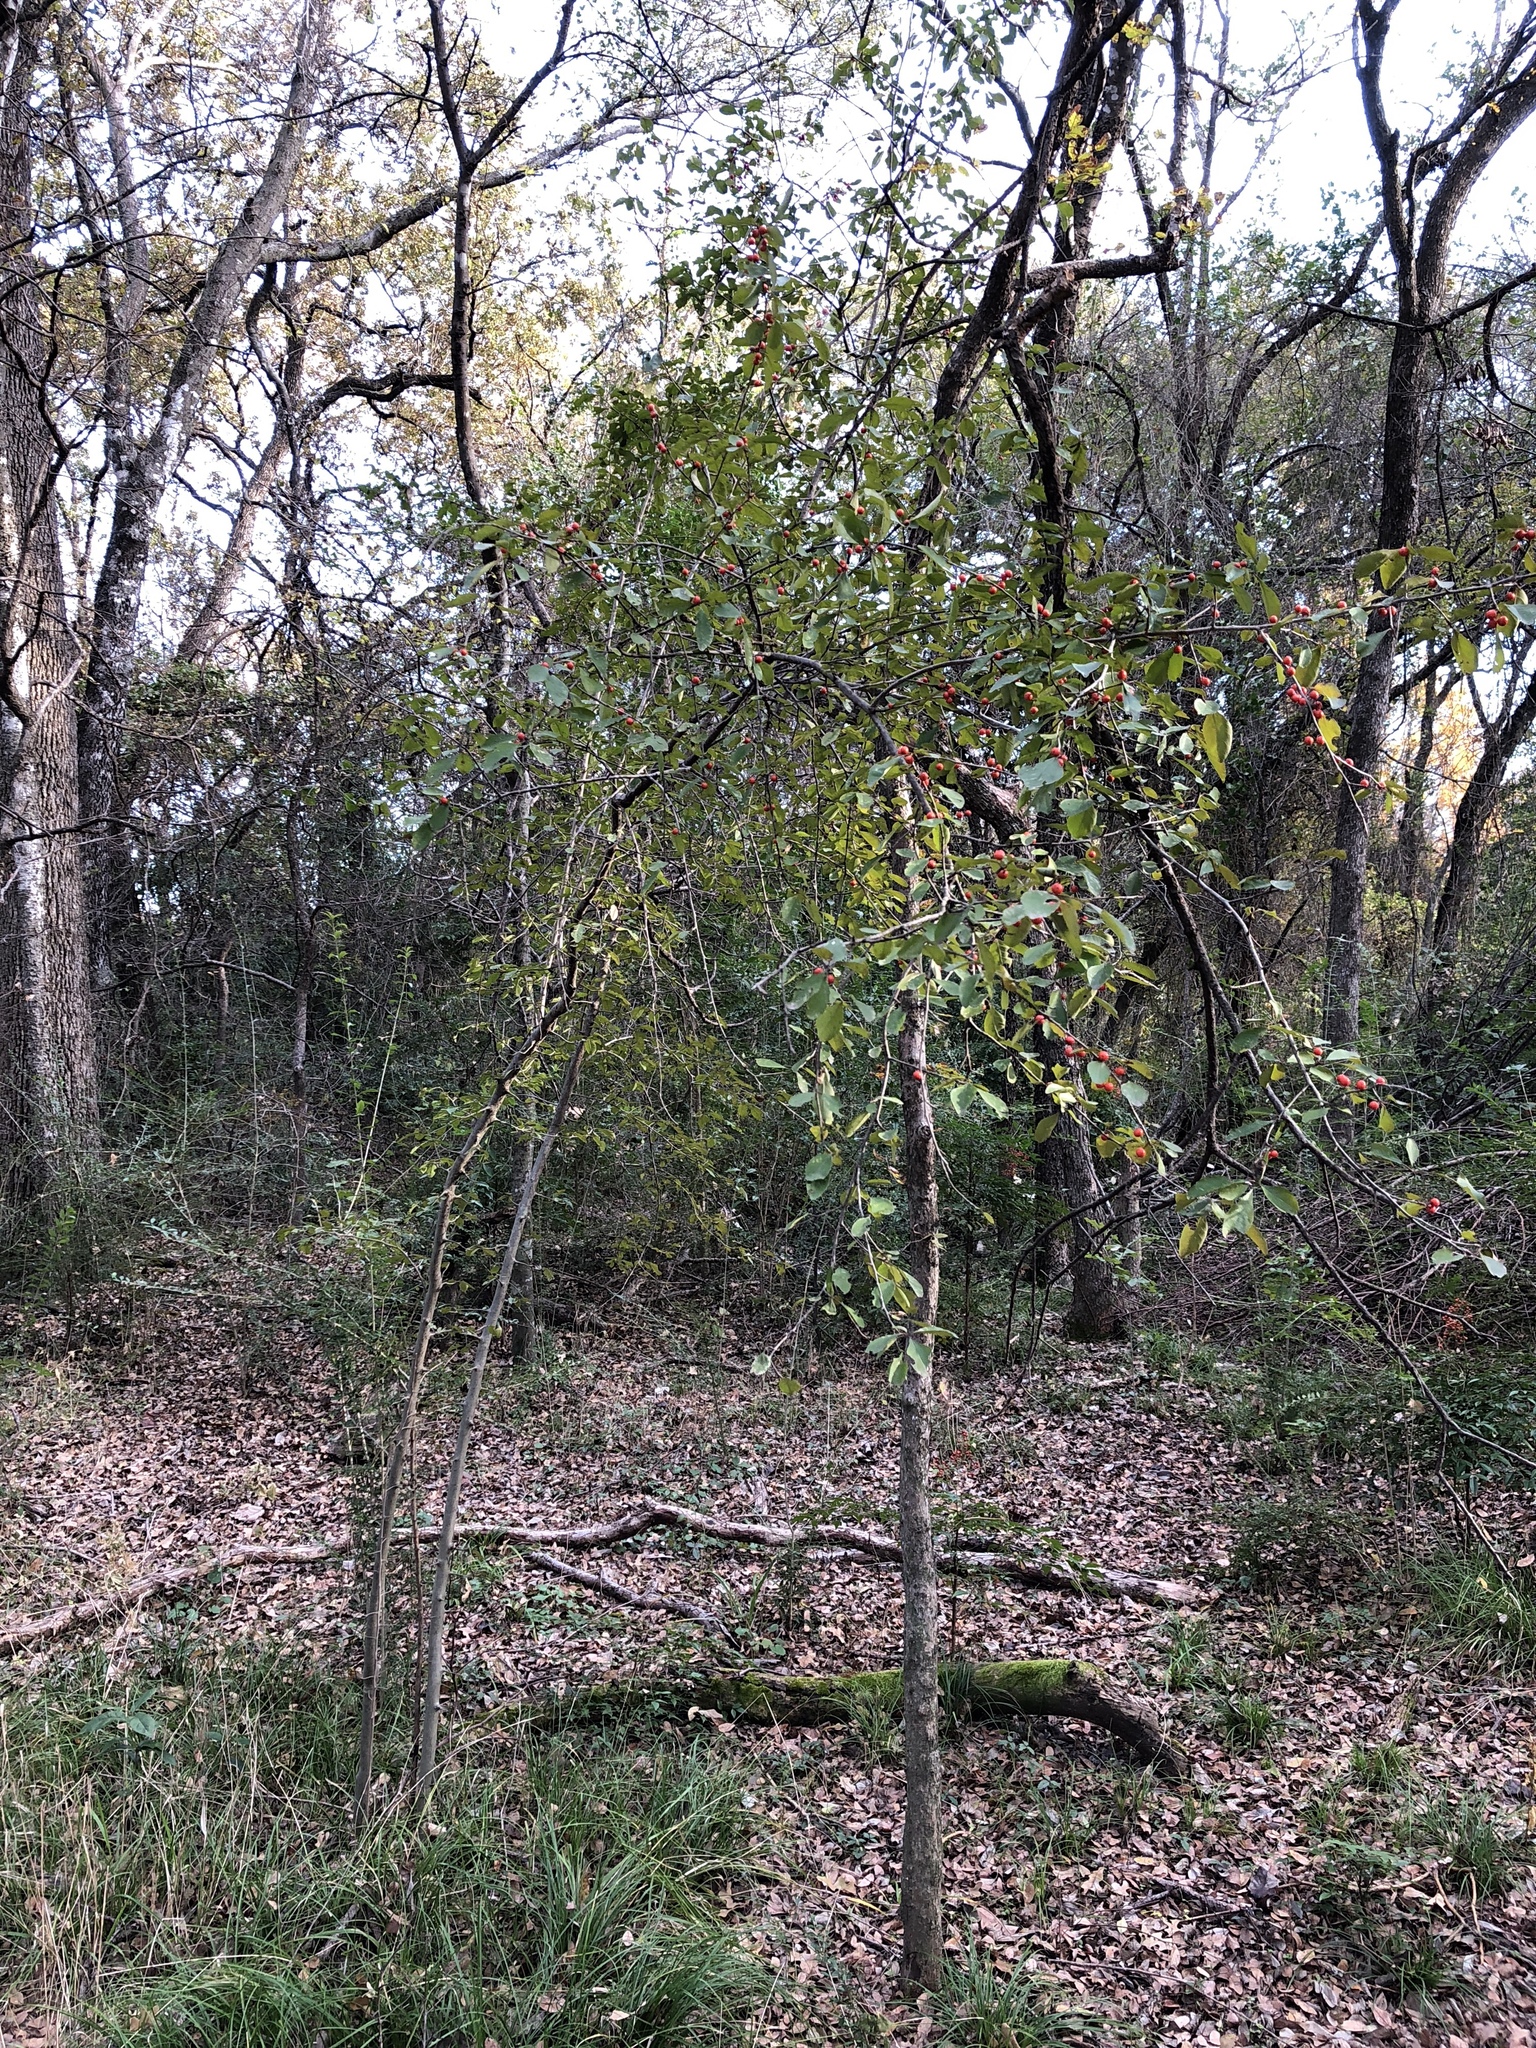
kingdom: Plantae
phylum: Tracheophyta
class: Magnoliopsida
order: Aquifoliales
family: Aquifoliaceae
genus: Ilex
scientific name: Ilex decidua
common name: Possum-haw
